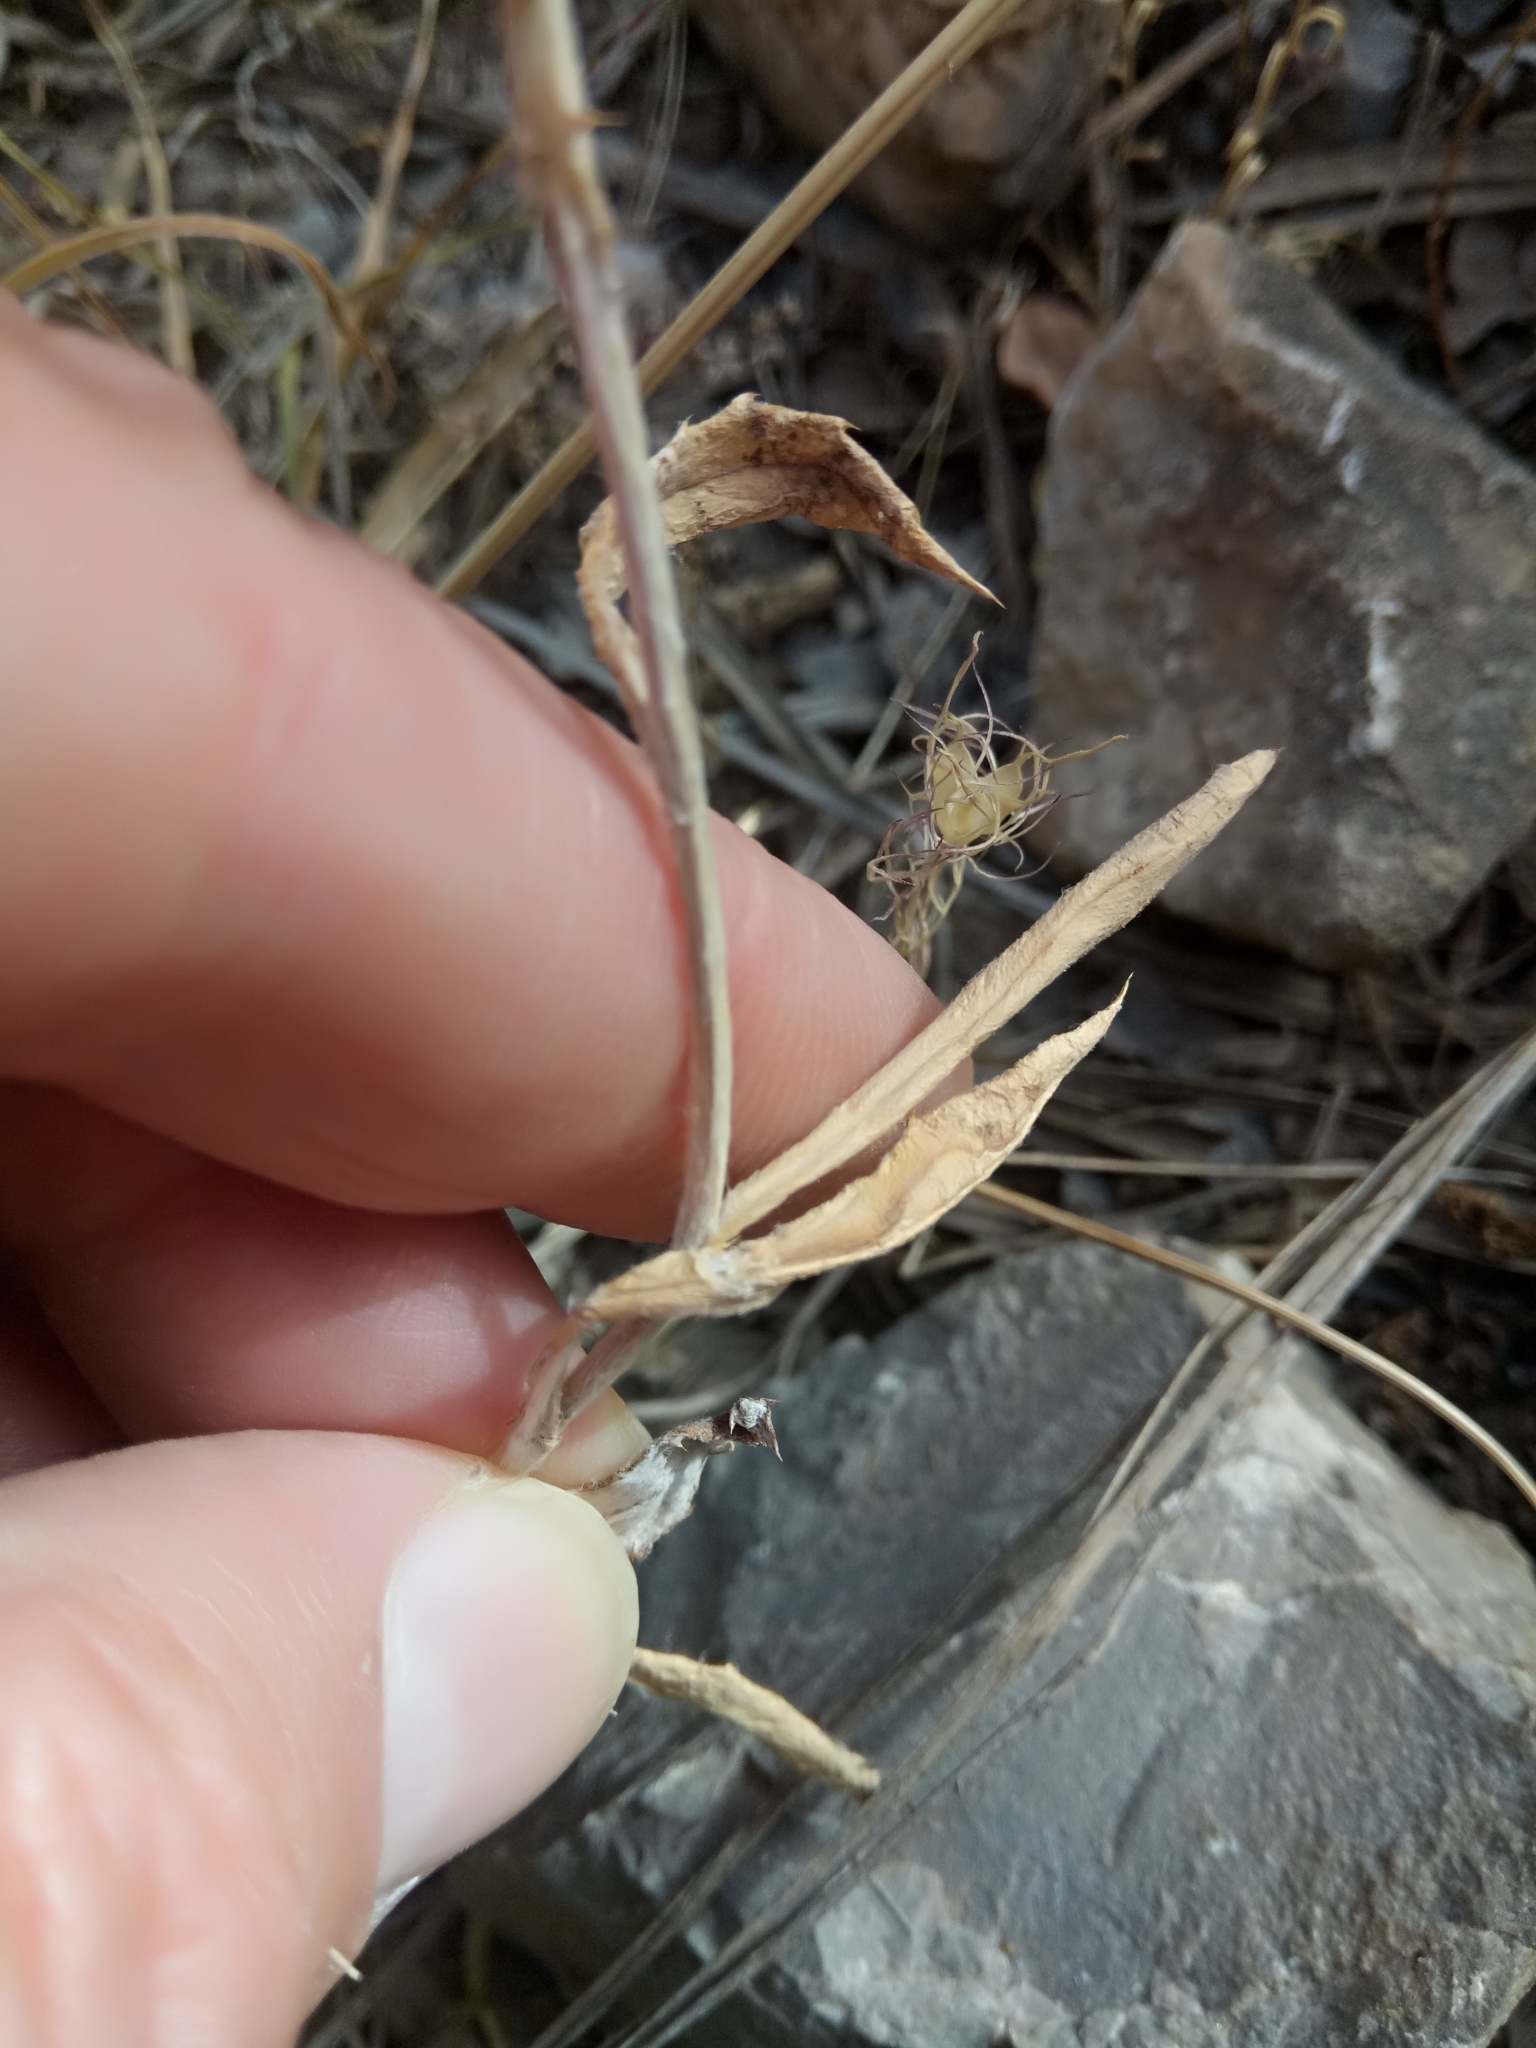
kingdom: Plantae
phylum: Tracheophyta
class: Magnoliopsida
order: Asterales
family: Asteraceae
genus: Galactites
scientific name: Galactites tomentosa
